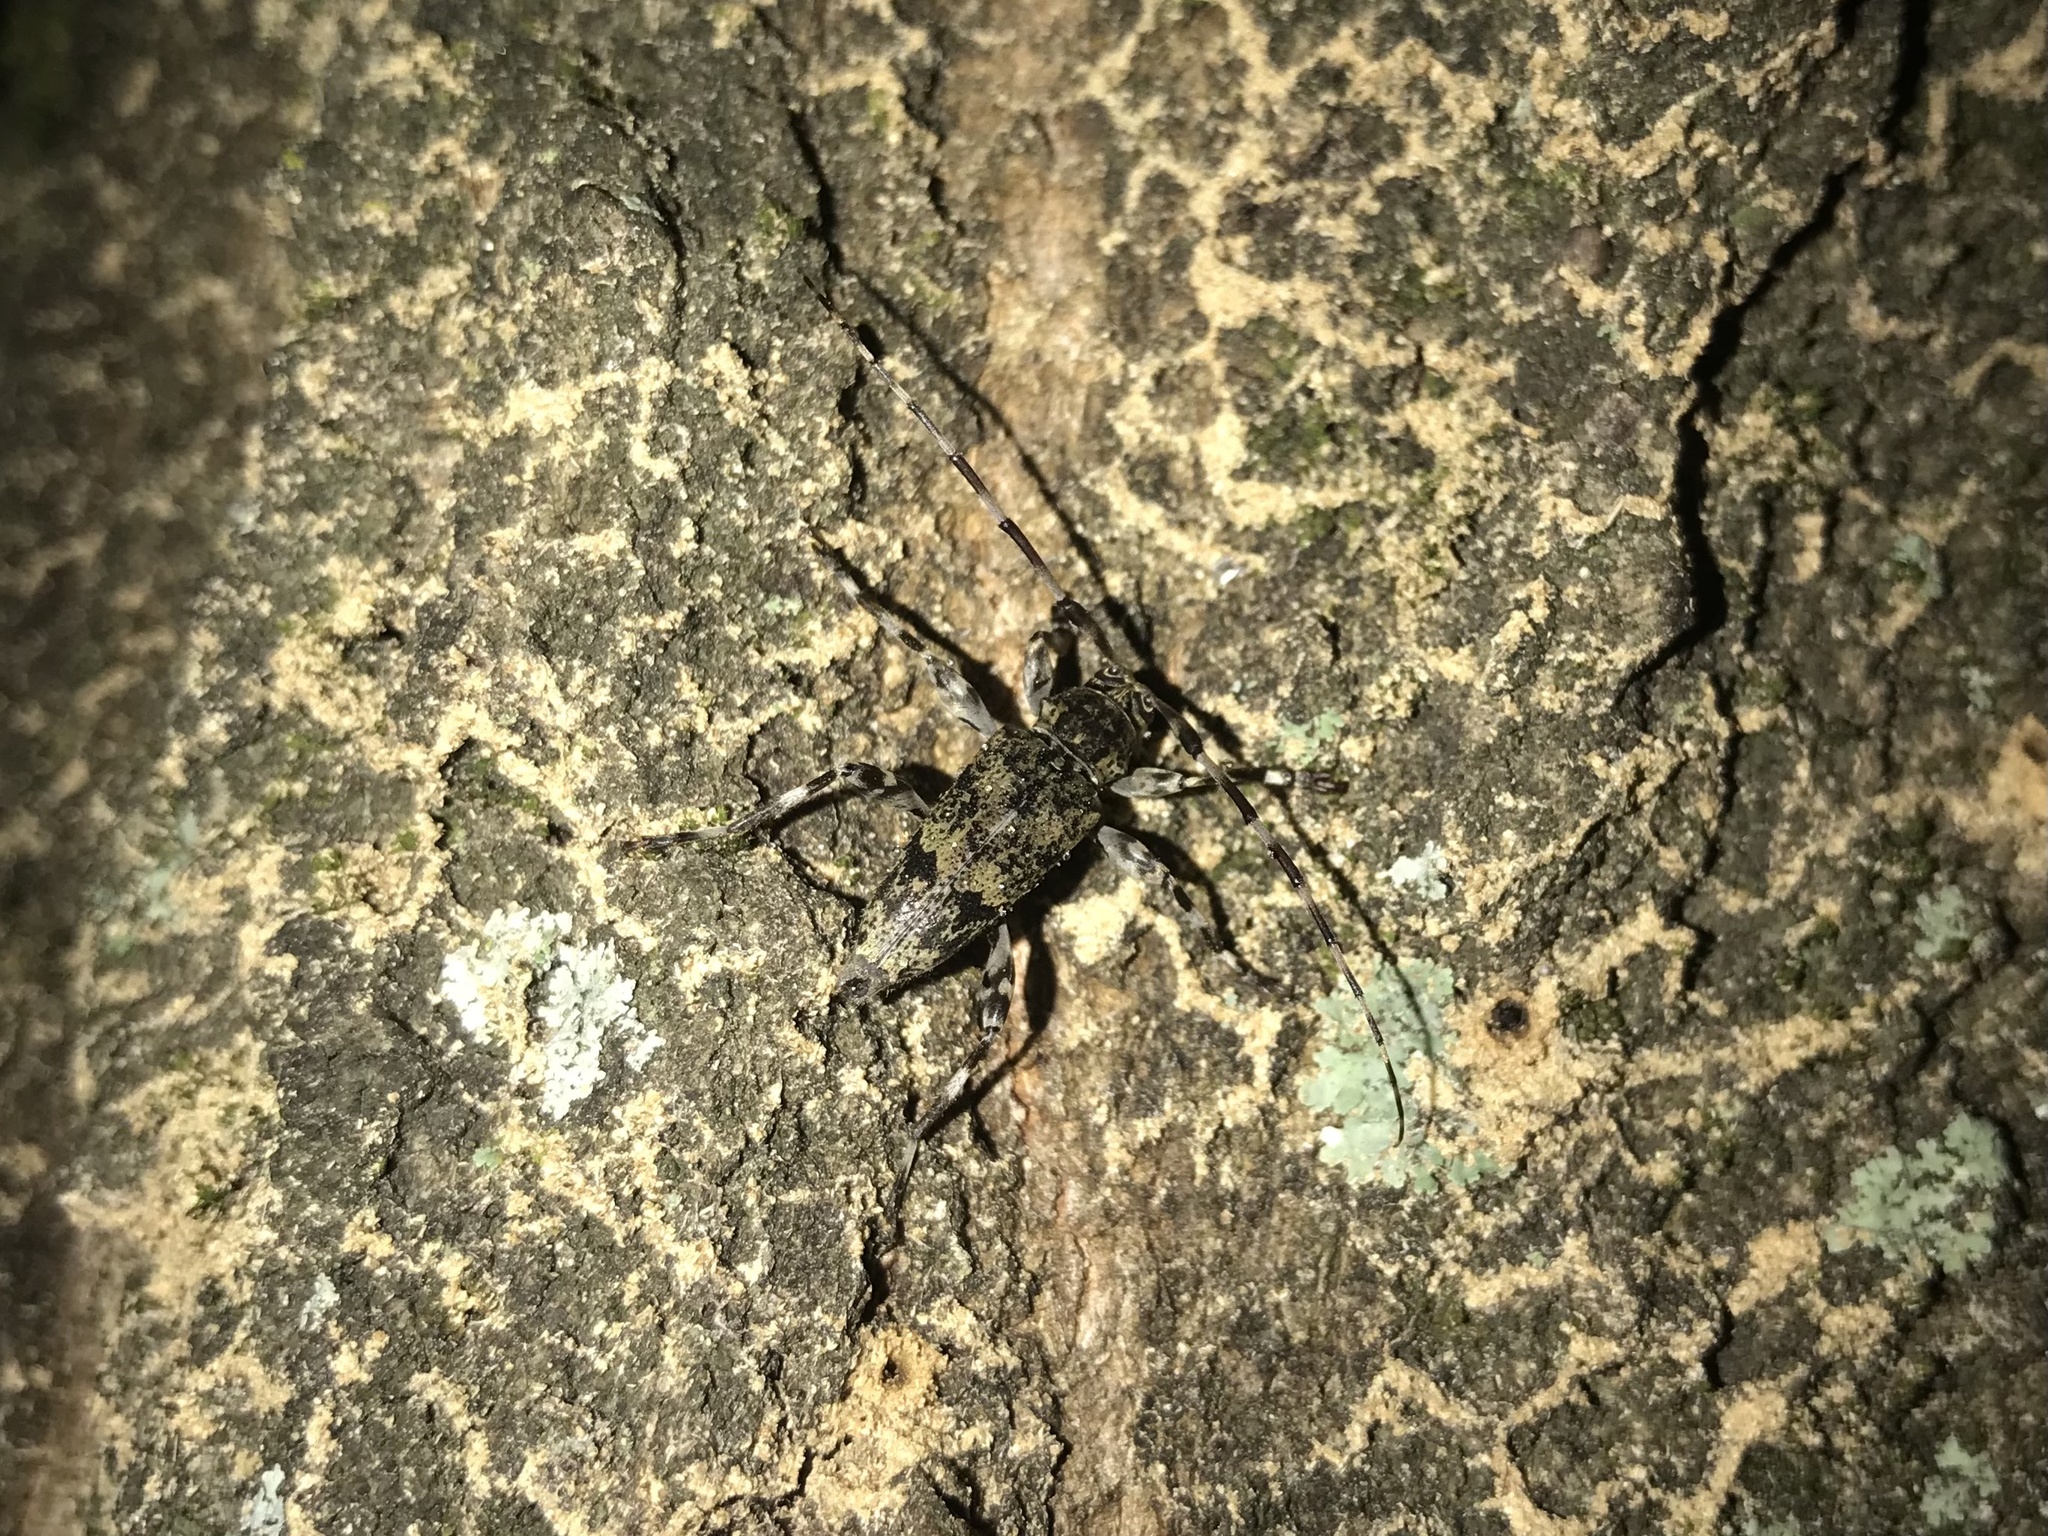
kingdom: Animalia
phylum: Arthropoda
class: Insecta
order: Coleoptera
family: Cerambycidae
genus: Graphisurus
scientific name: Graphisurus fasciatus
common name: Banded graphisurus
